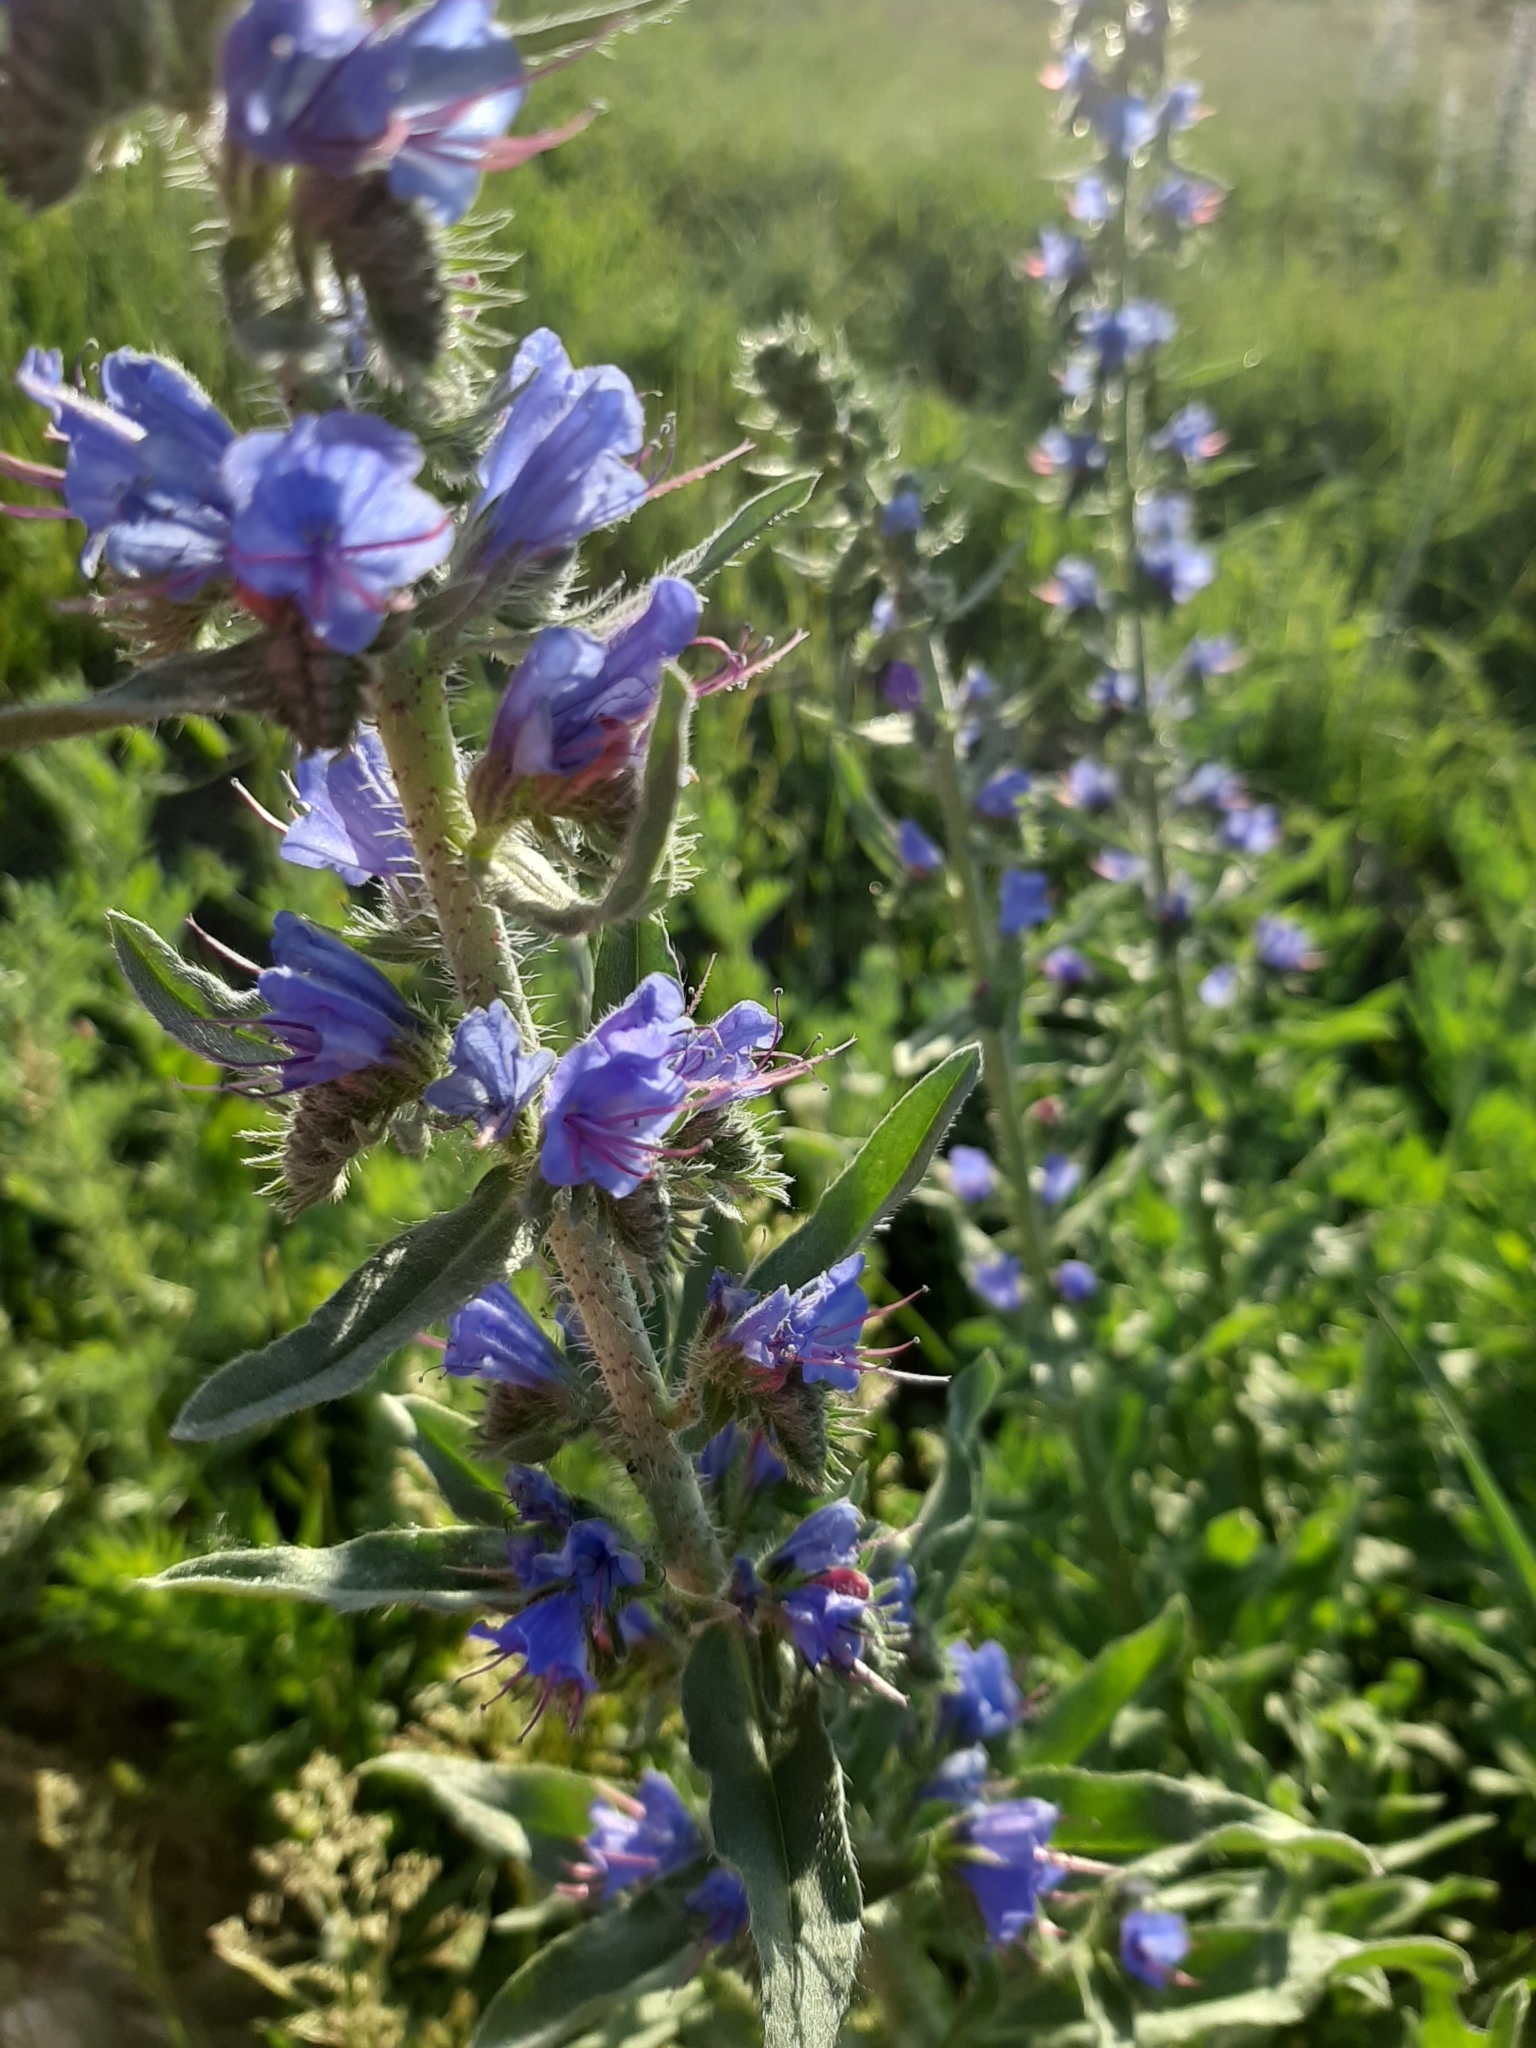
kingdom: Plantae
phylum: Tracheophyta
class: Magnoliopsida
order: Boraginales
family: Boraginaceae
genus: Echium
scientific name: Echium vulgare
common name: Common viper's bugloss
